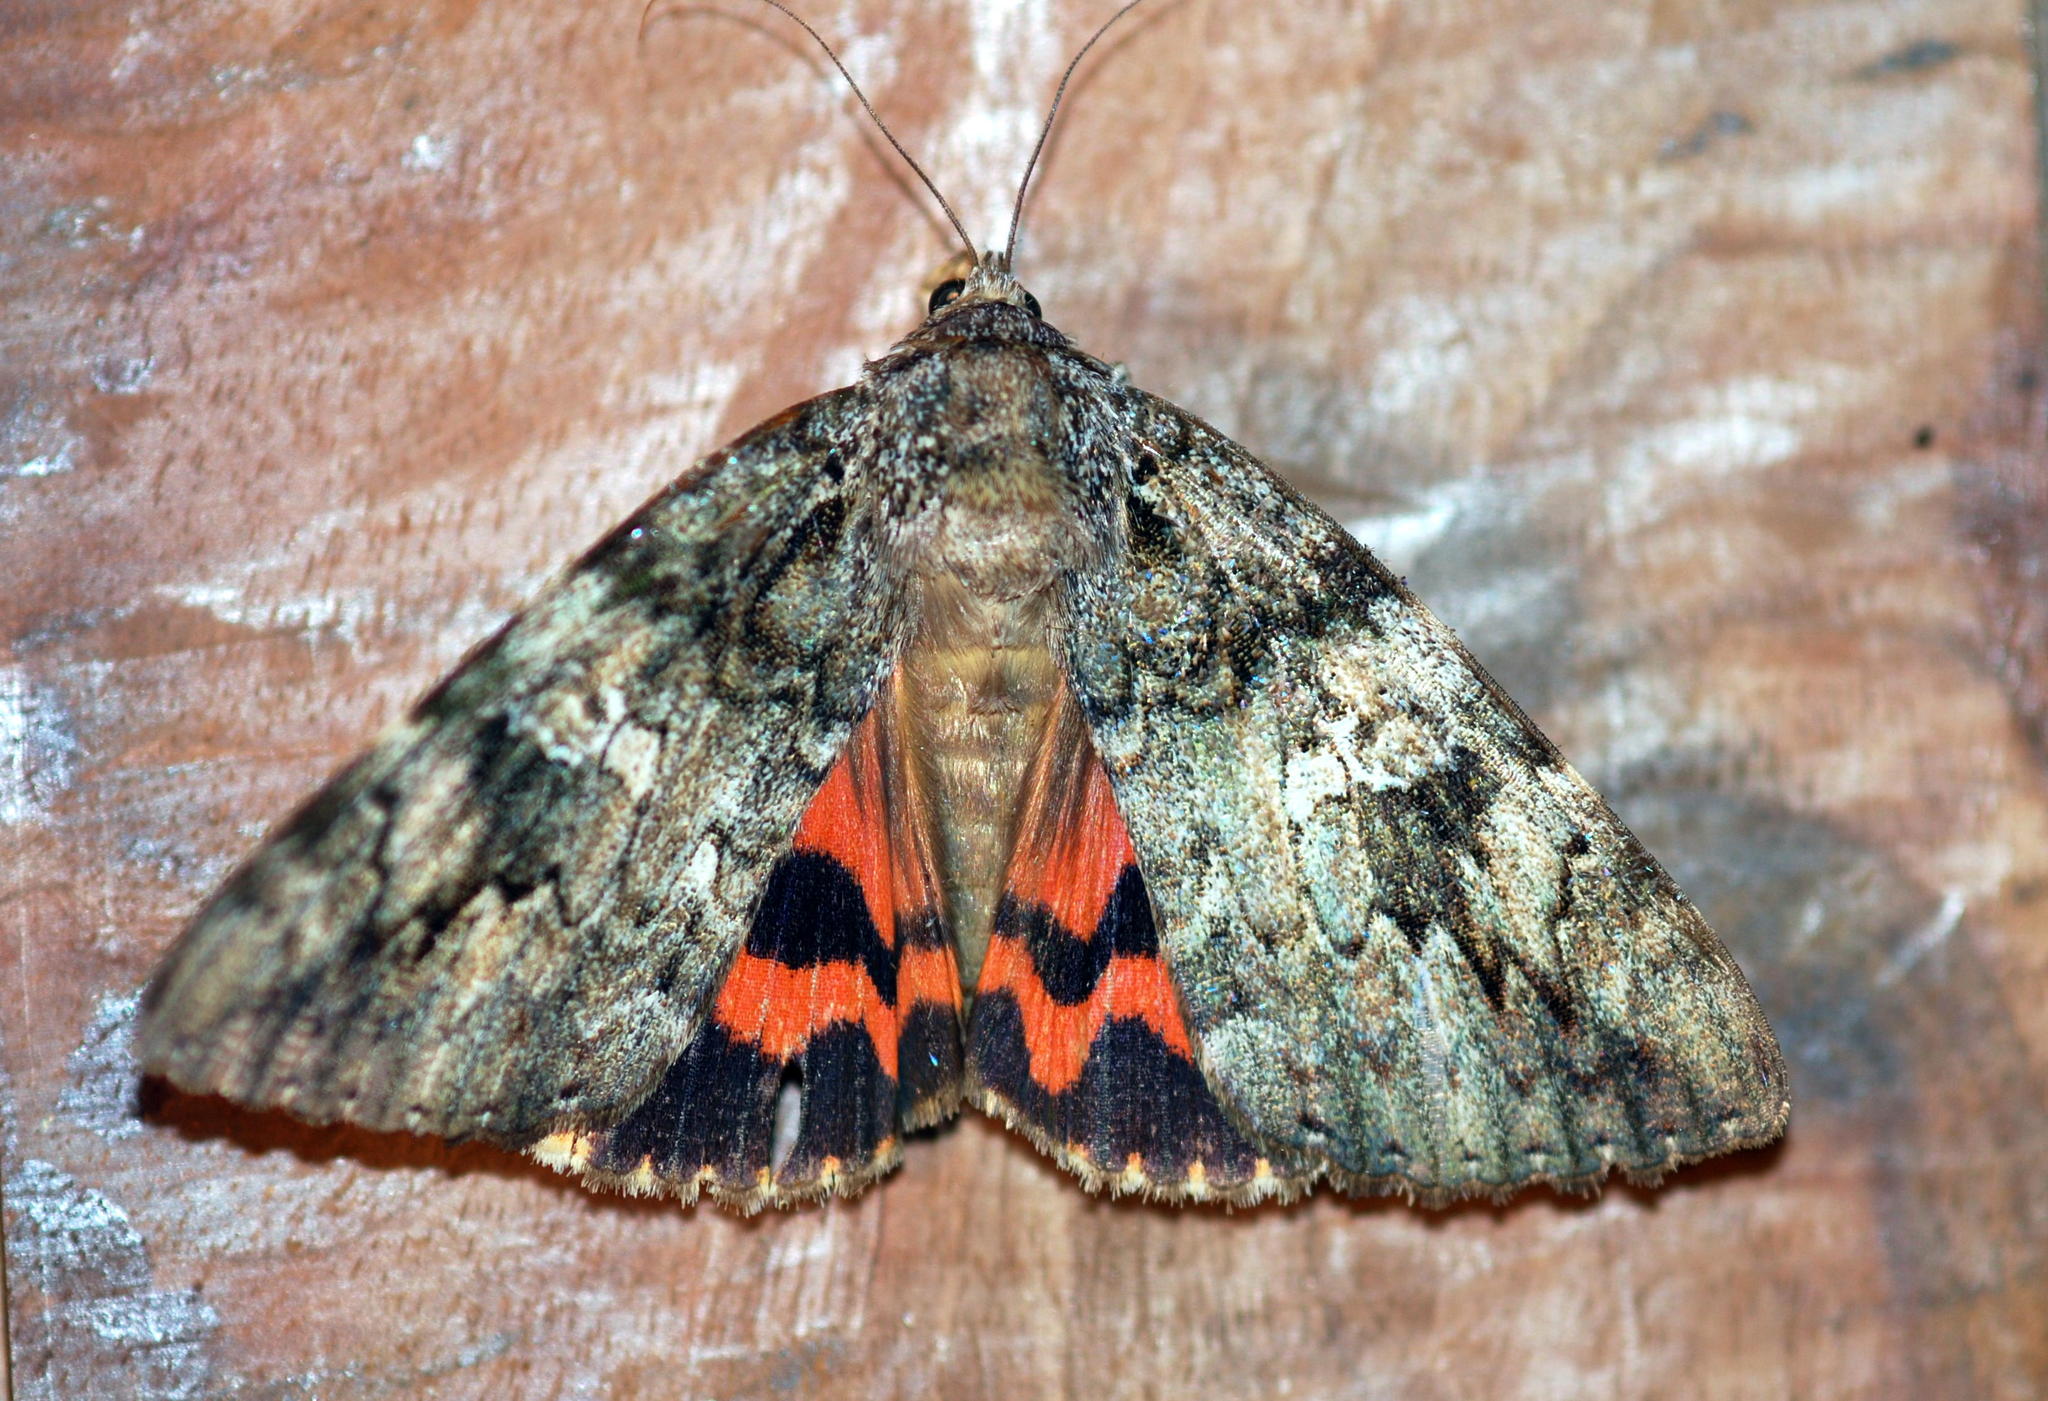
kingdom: Animalia
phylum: Arthropoda
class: Insecta
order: Lepidoptera
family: Erebidae
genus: Catocala
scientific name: Catocala ilia
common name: Ilia underwing
